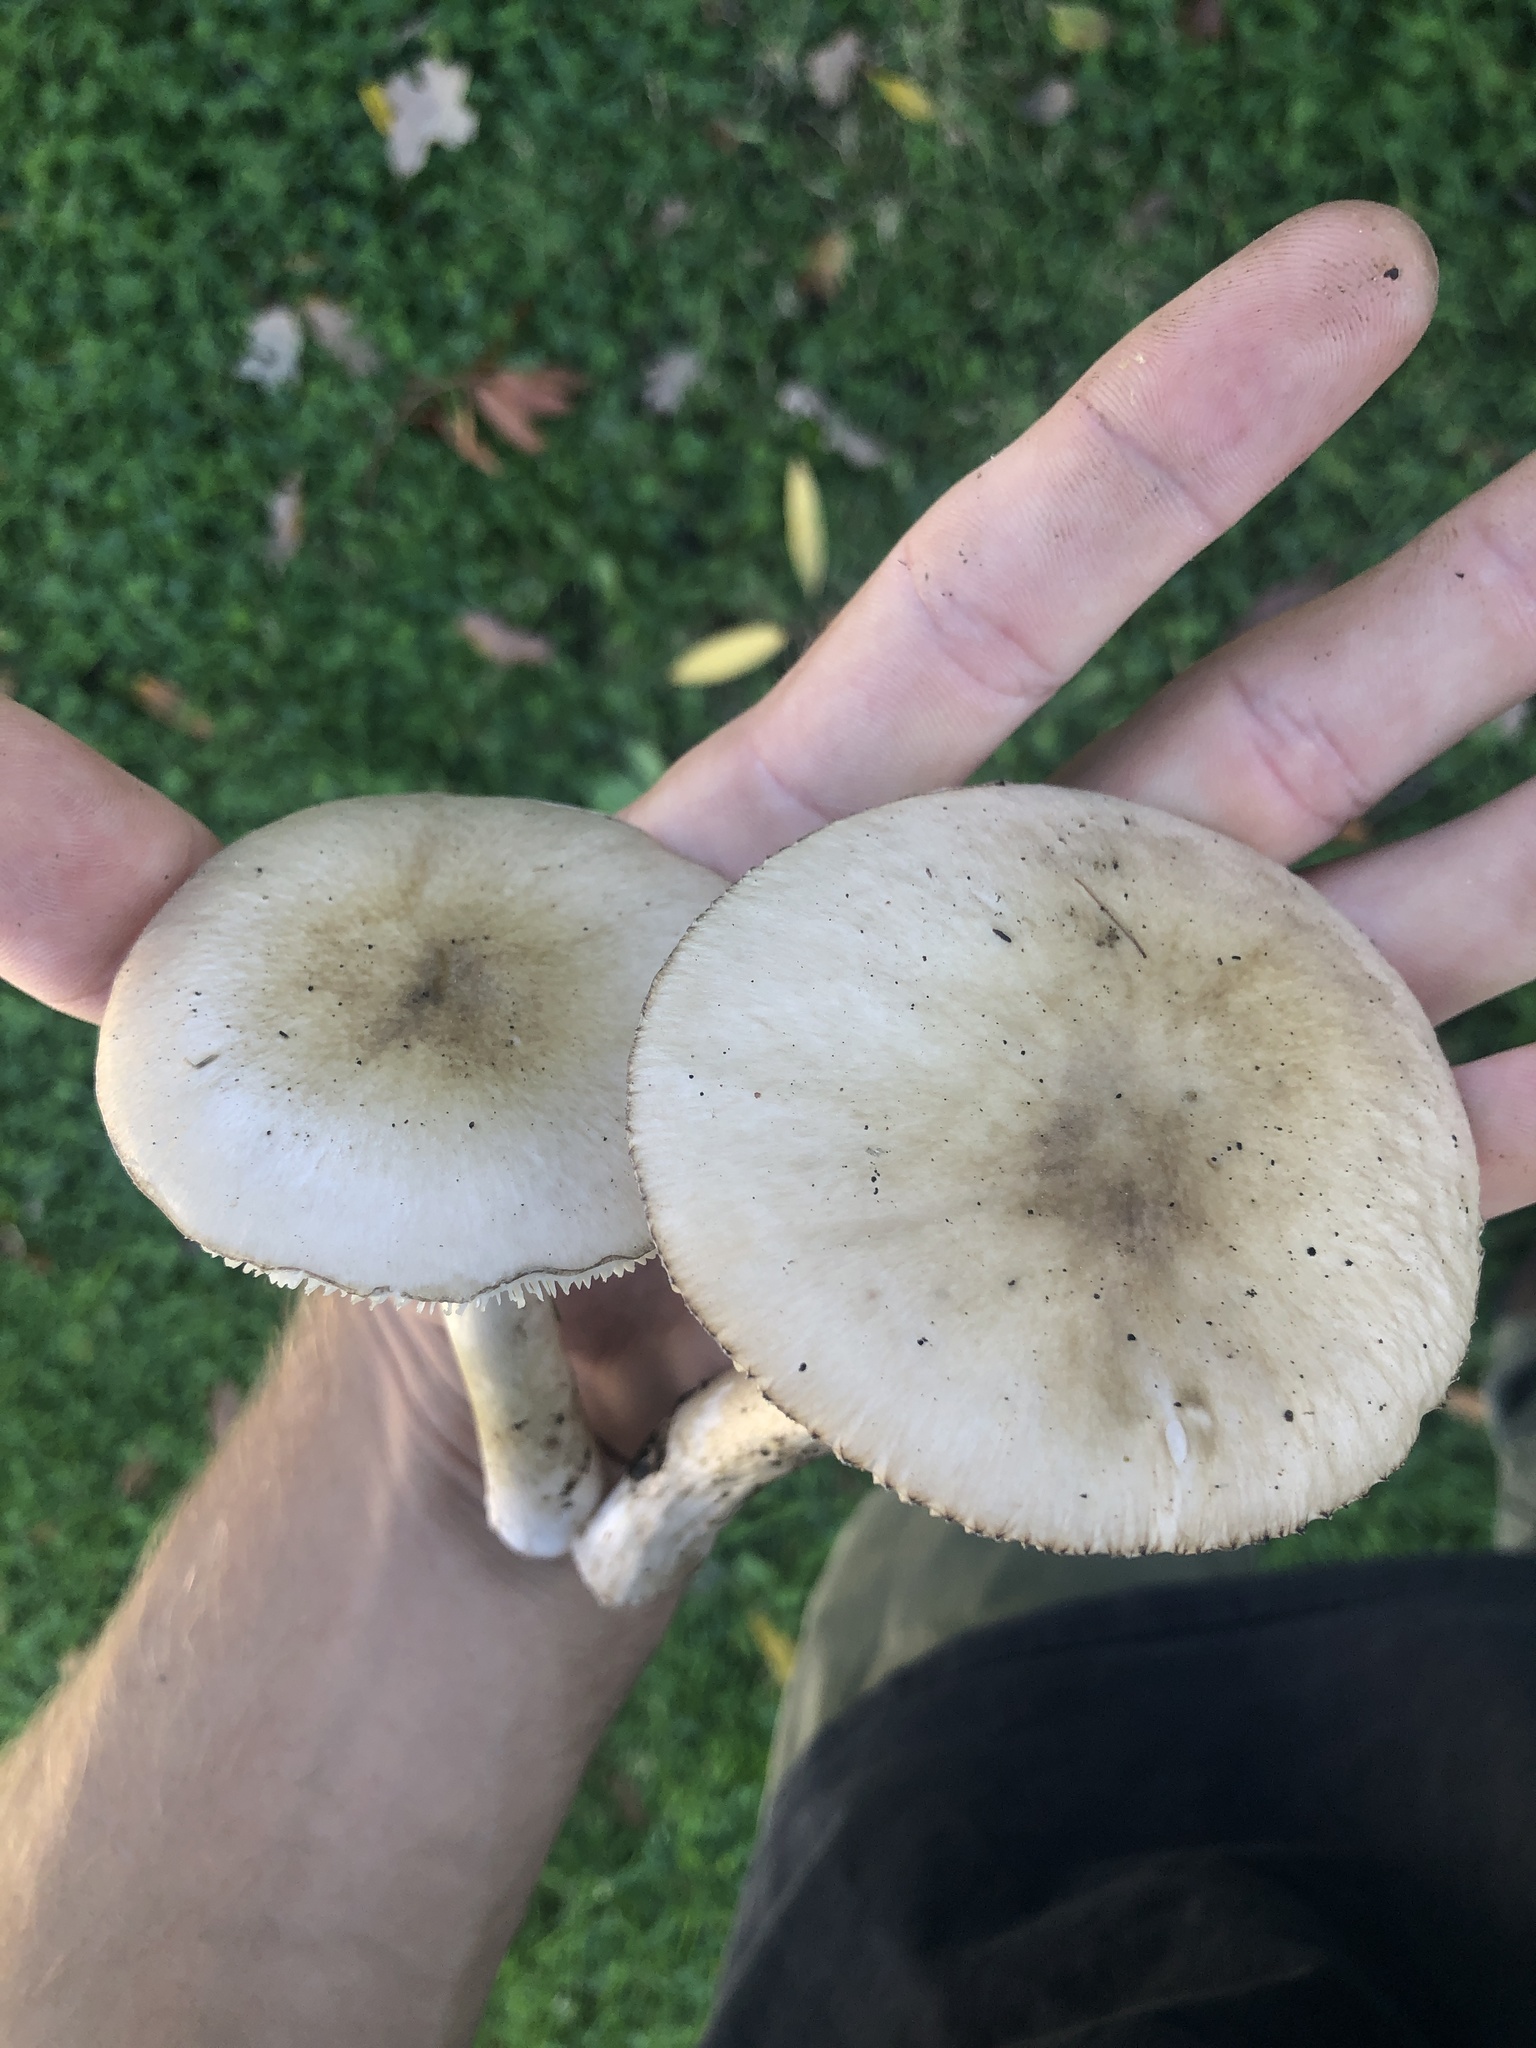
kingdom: Fungi
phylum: Basidiomycota
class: Agaricomycetes
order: Agaricales
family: Amanitaceae
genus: Amanita
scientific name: Amanita phalloides
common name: Death cap
